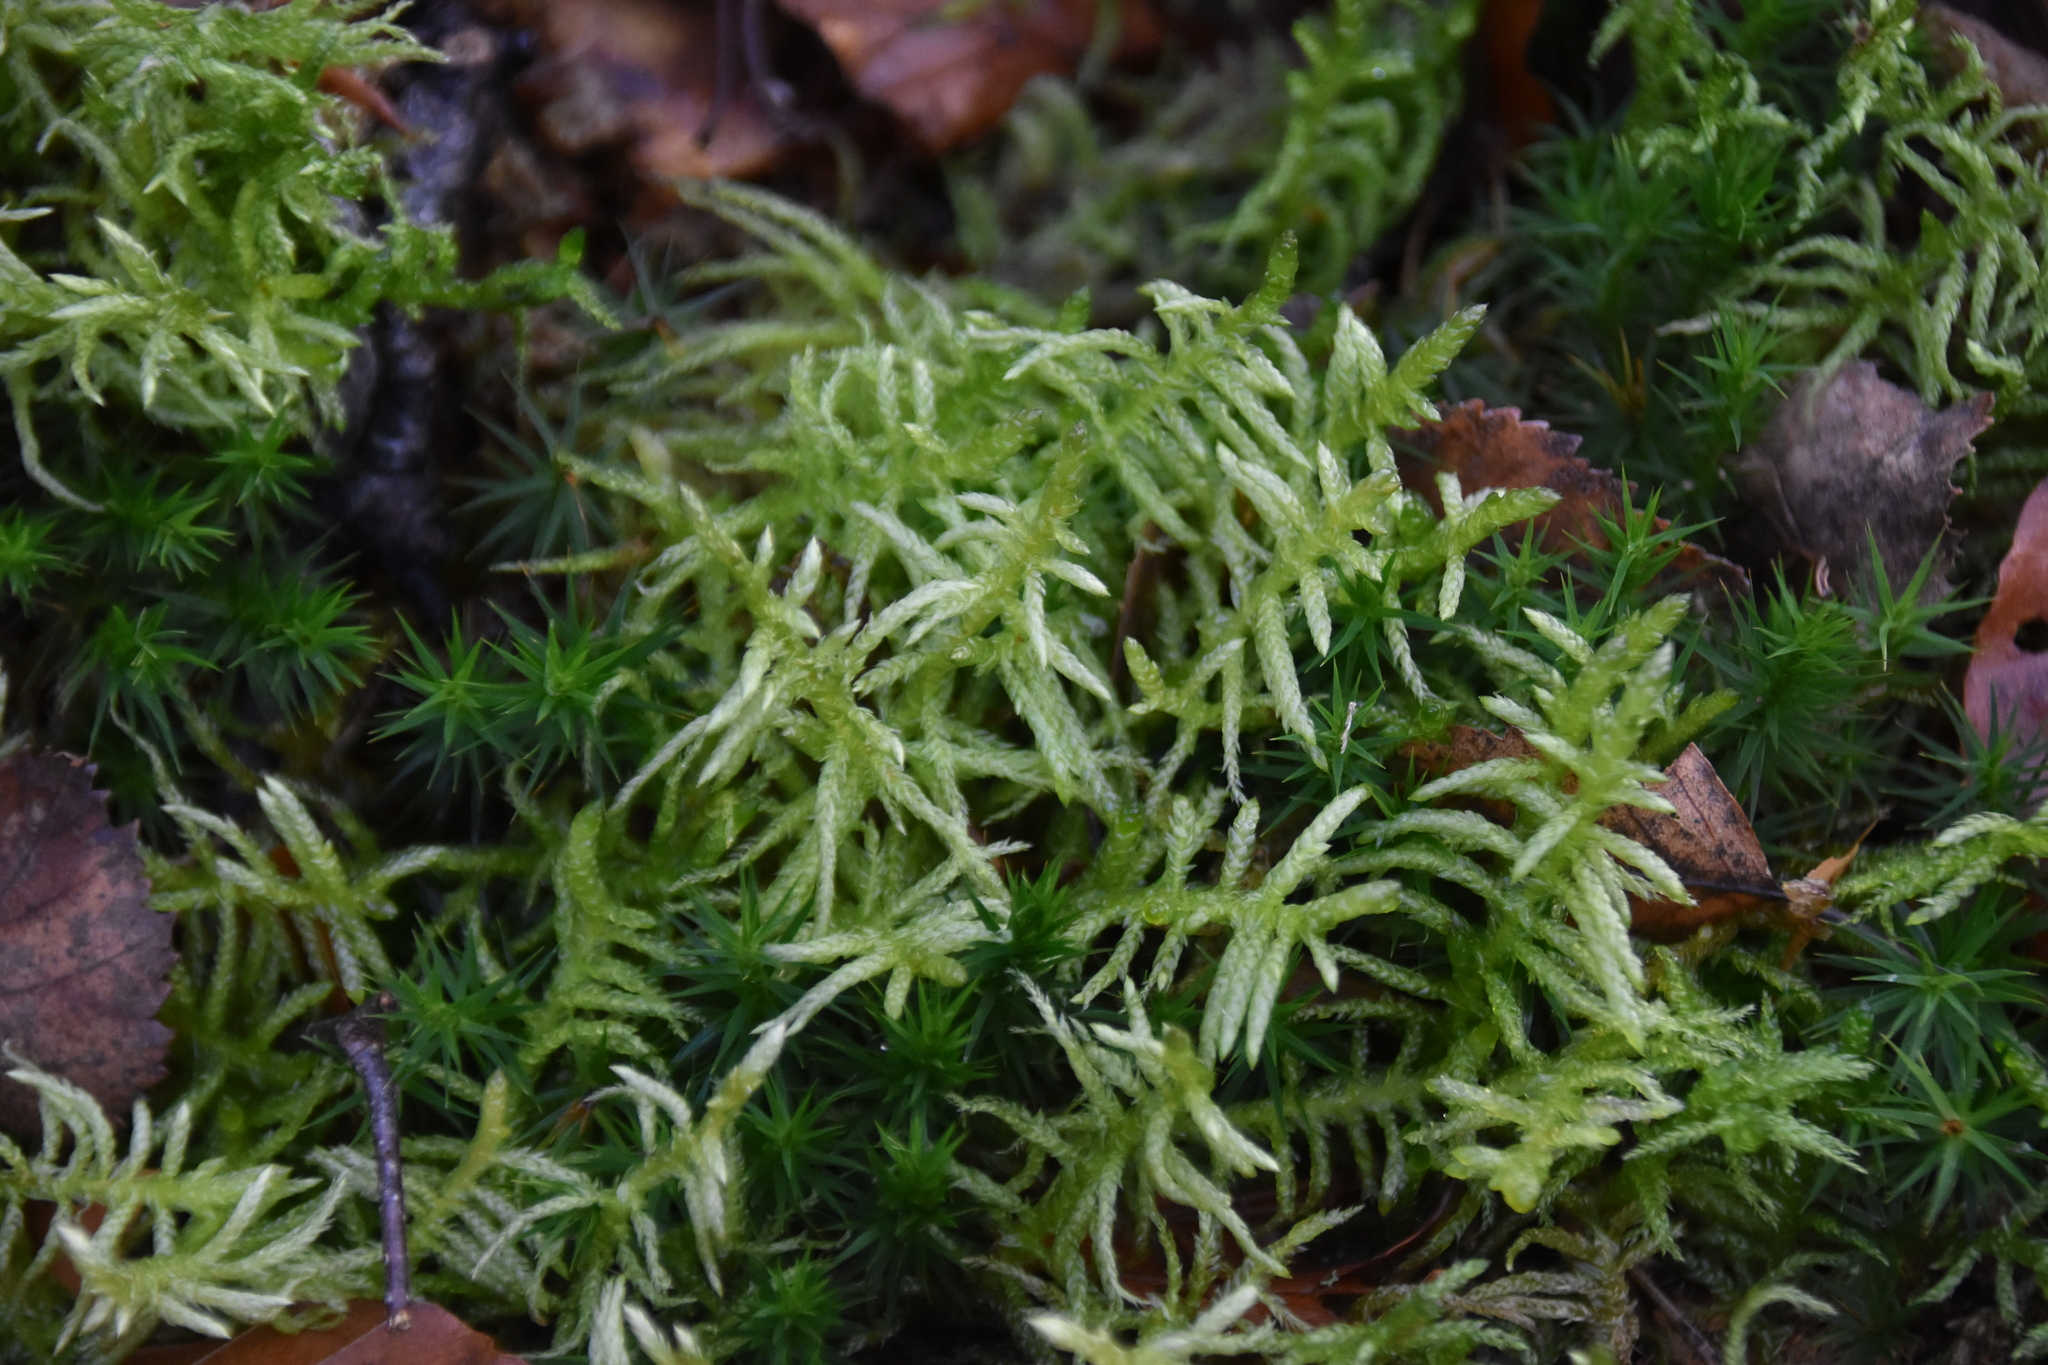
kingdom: Plantae
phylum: Bryophyta
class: Bryopsida
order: Hypnales
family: Brachytheciaceae
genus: Pseudoscleropodium
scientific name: Pseudoscleropodium purum
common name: Neat feather-moss
